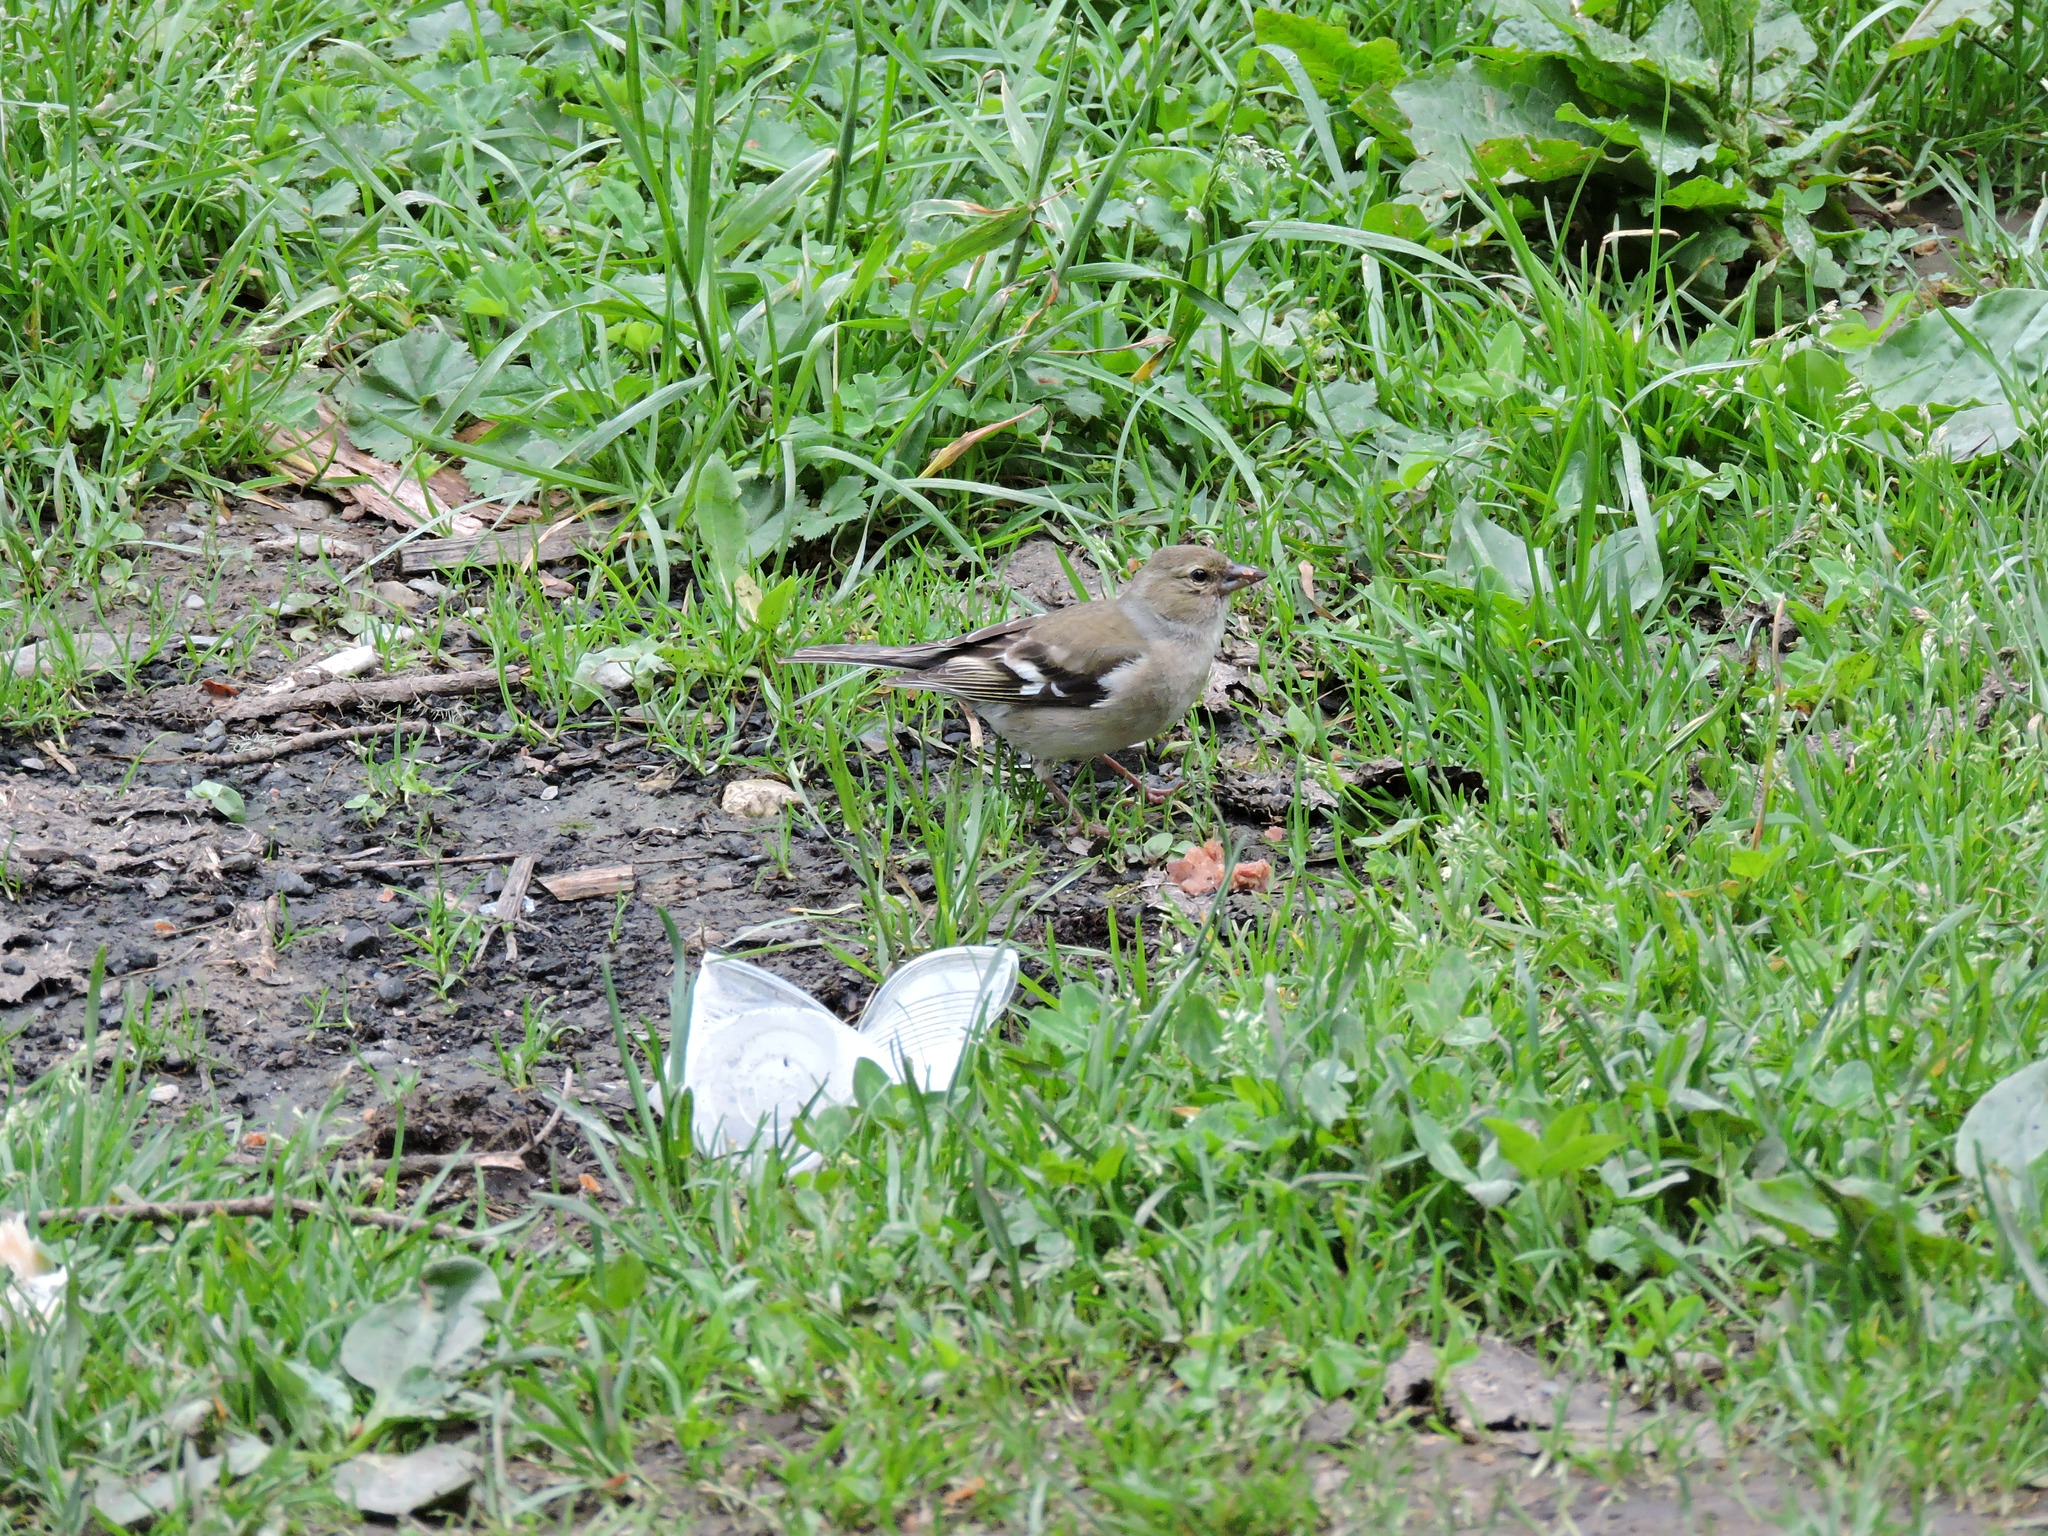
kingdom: Animalia
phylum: Chordata
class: Aves
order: Passeriformes
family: Fringillidae
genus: Fringilla
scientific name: Fringilla coelebs
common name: Common chaffinch
